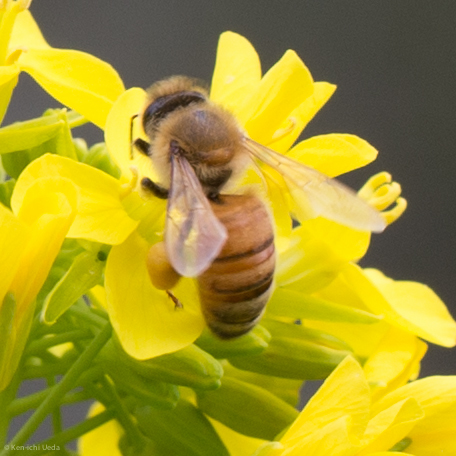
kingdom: Animalia
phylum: Arthropoda
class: Insecta
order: Hymenoptera
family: Apidae
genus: Apis
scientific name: Apis mellifera
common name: Honey bee
